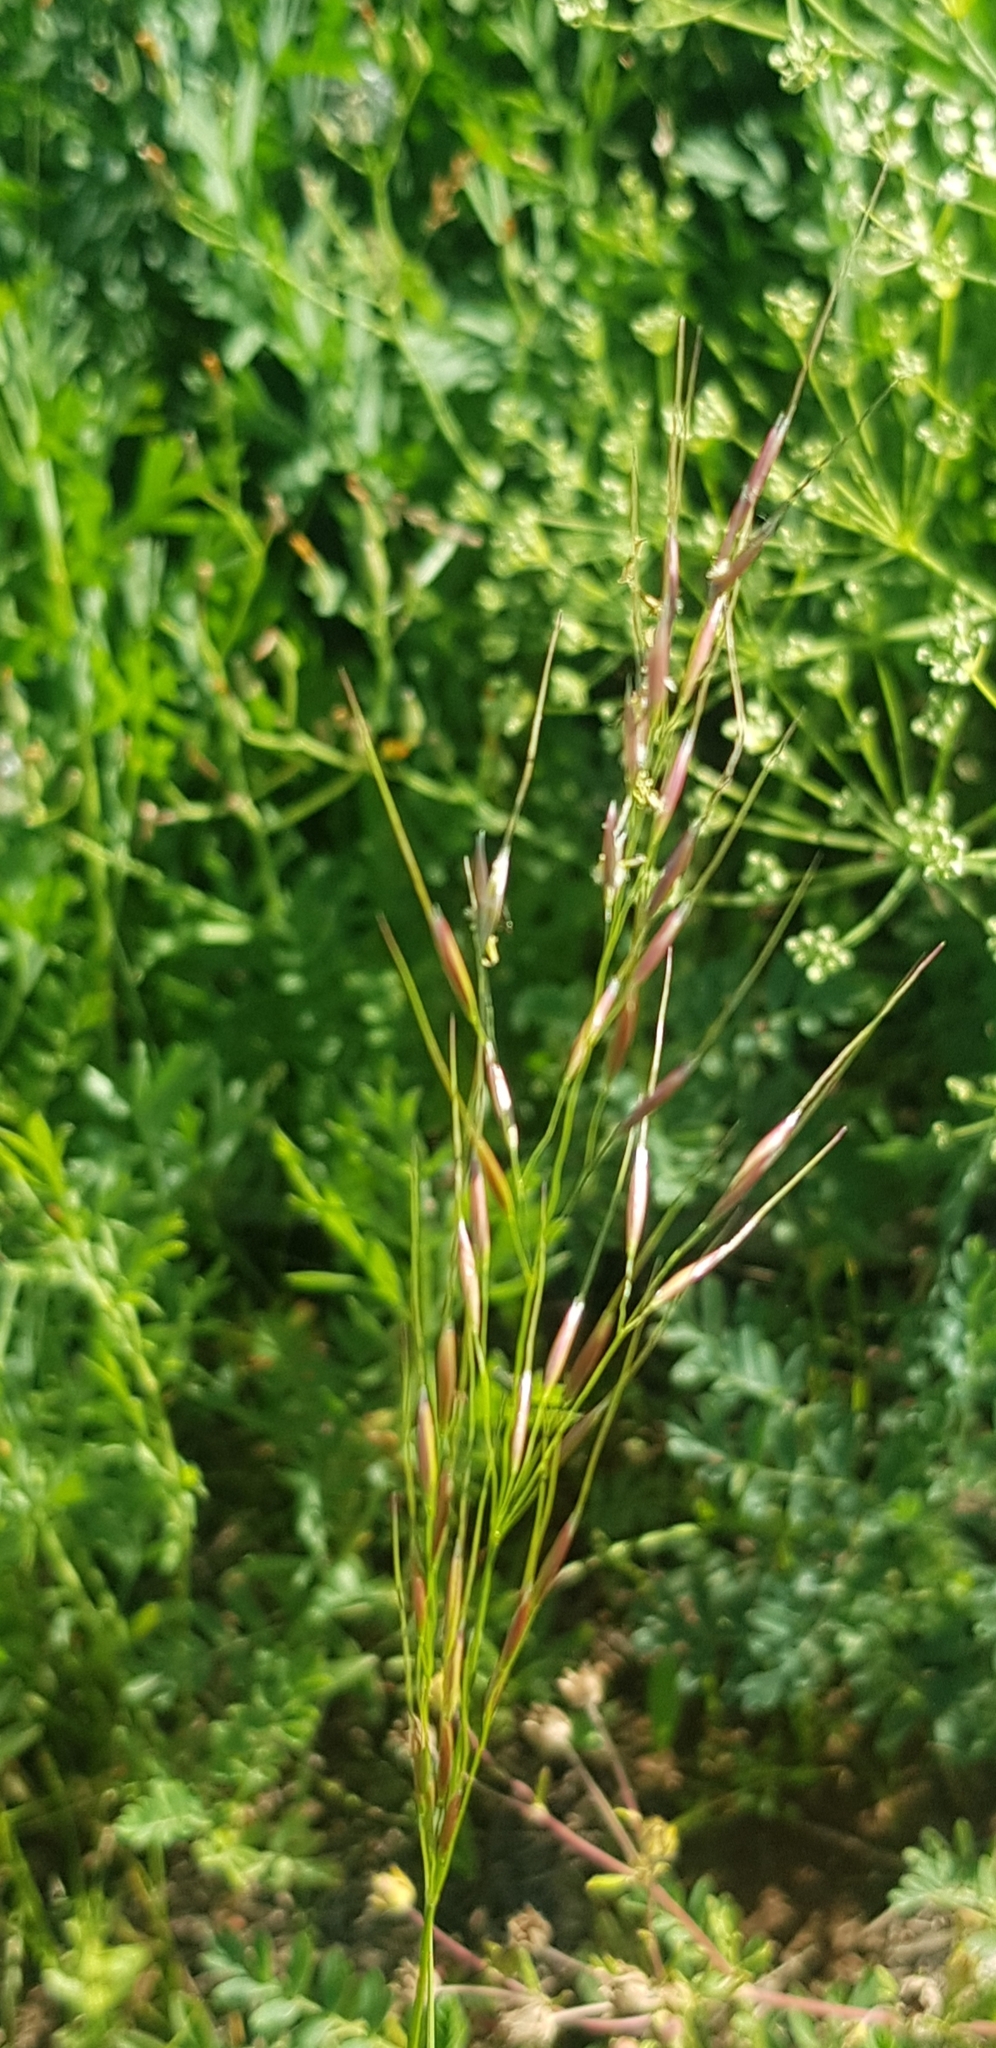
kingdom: Plantae
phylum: Tracheophyta
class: Liliopsida
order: Poales
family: Poaceae
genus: Achnatherum
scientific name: Achnatherum sibiricum
